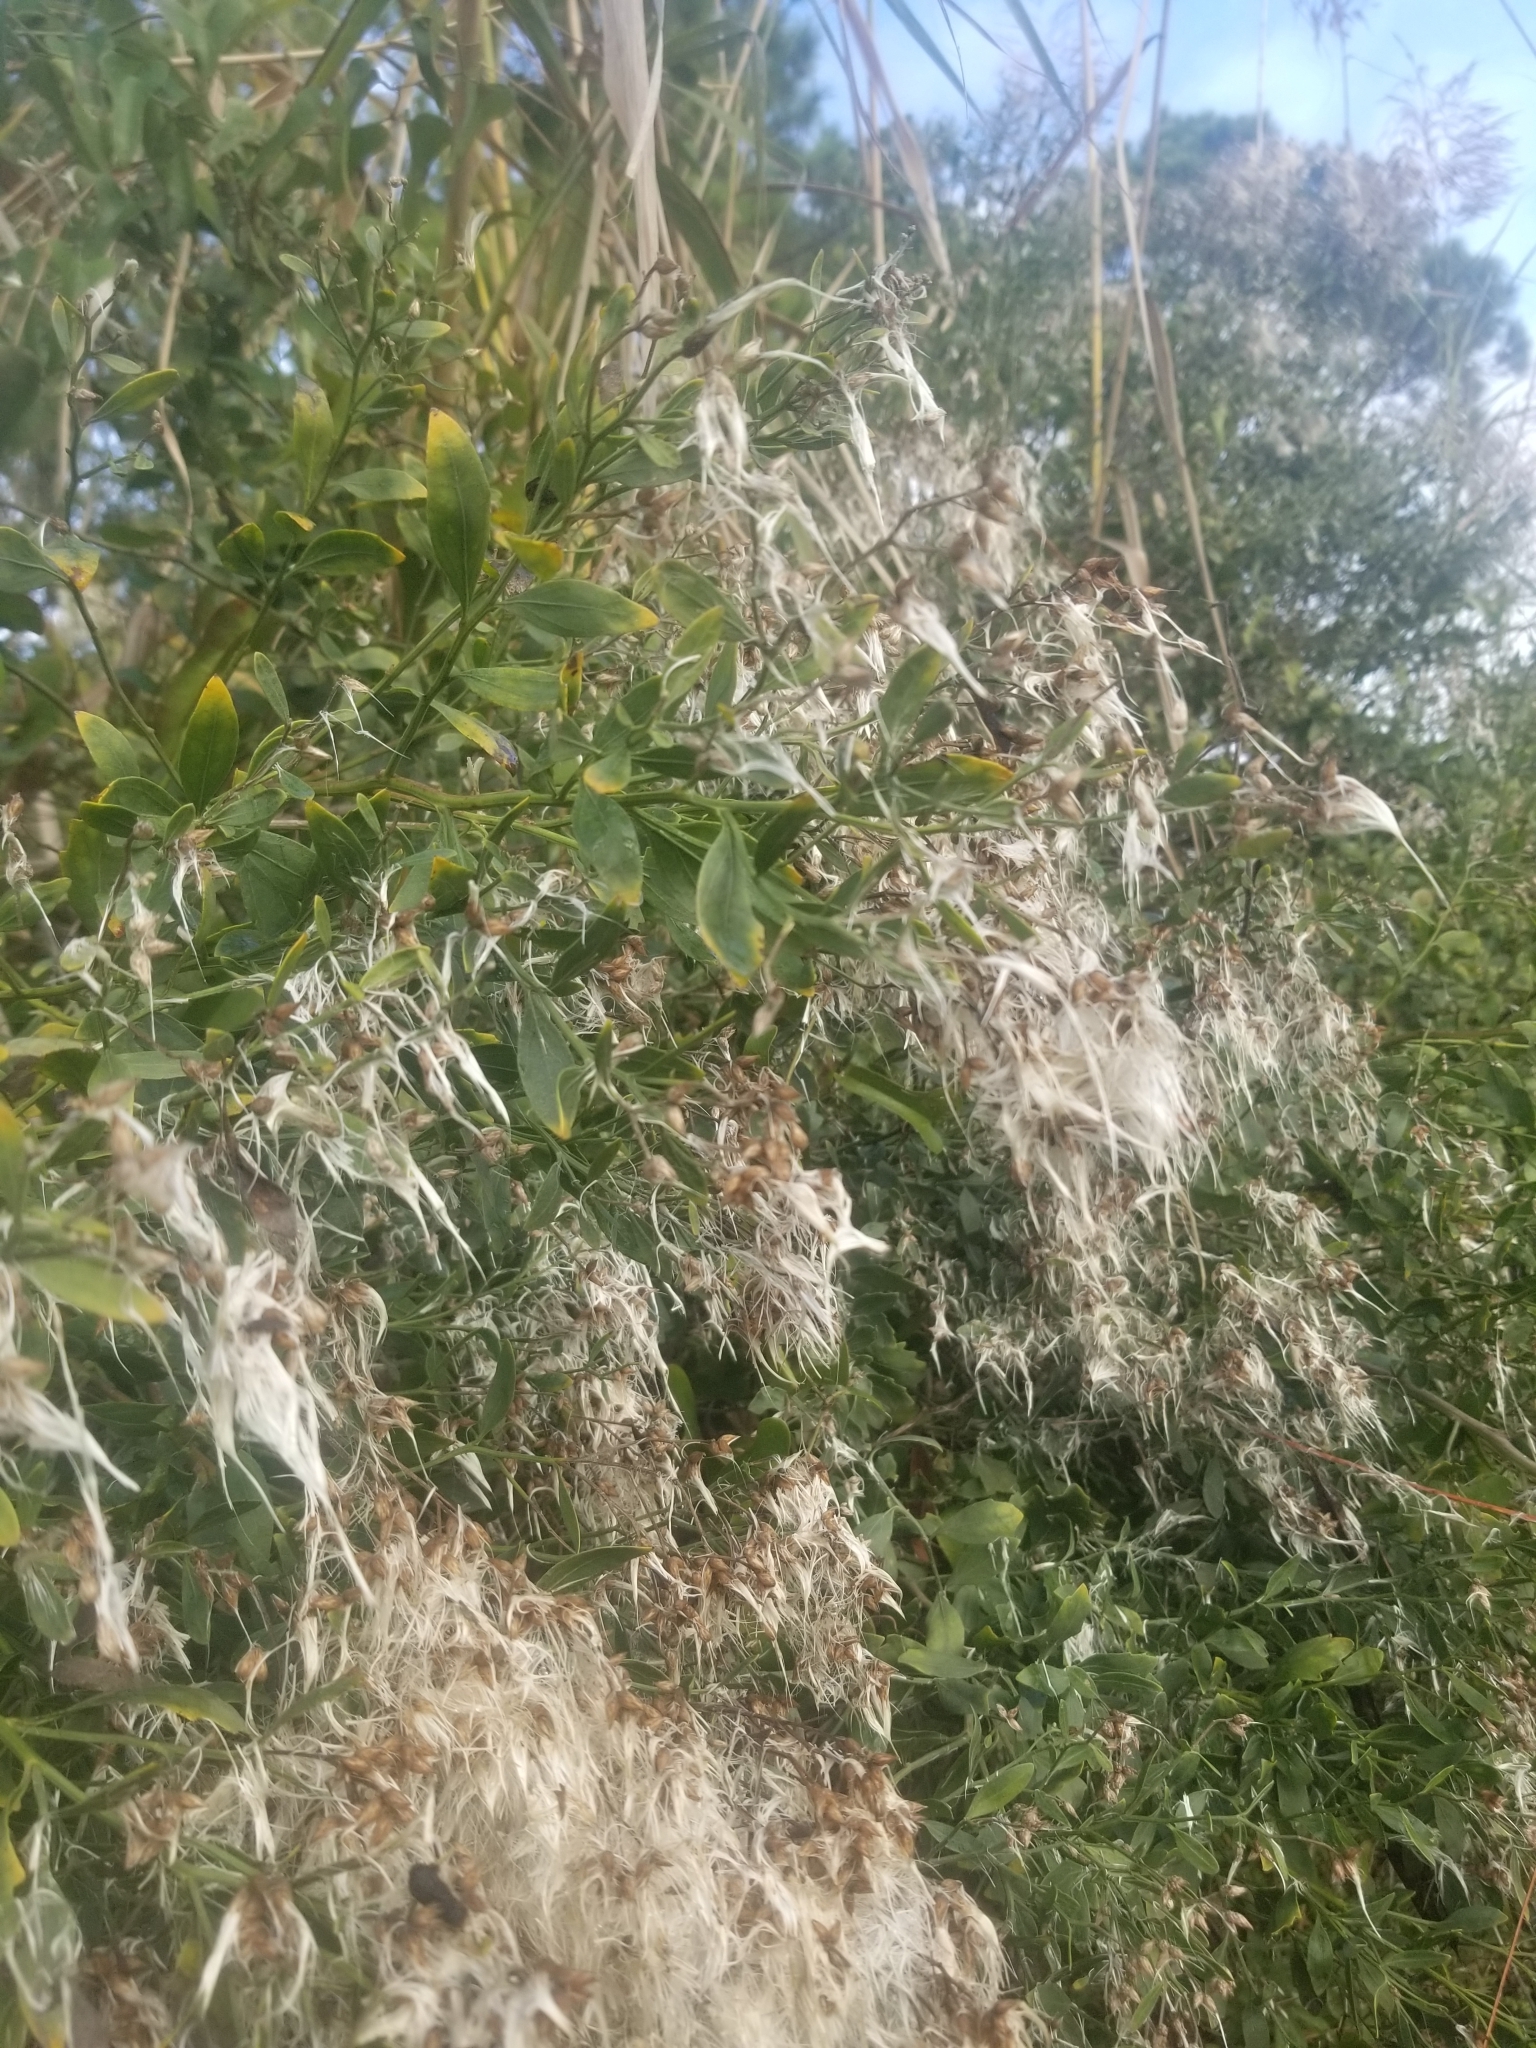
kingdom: Plantae
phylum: Tracheophyta
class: Magnoliopsida
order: Asterales
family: Asteraceae
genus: Baccharis
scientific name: Baccharis halimifolia
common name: Eastern baccharis
